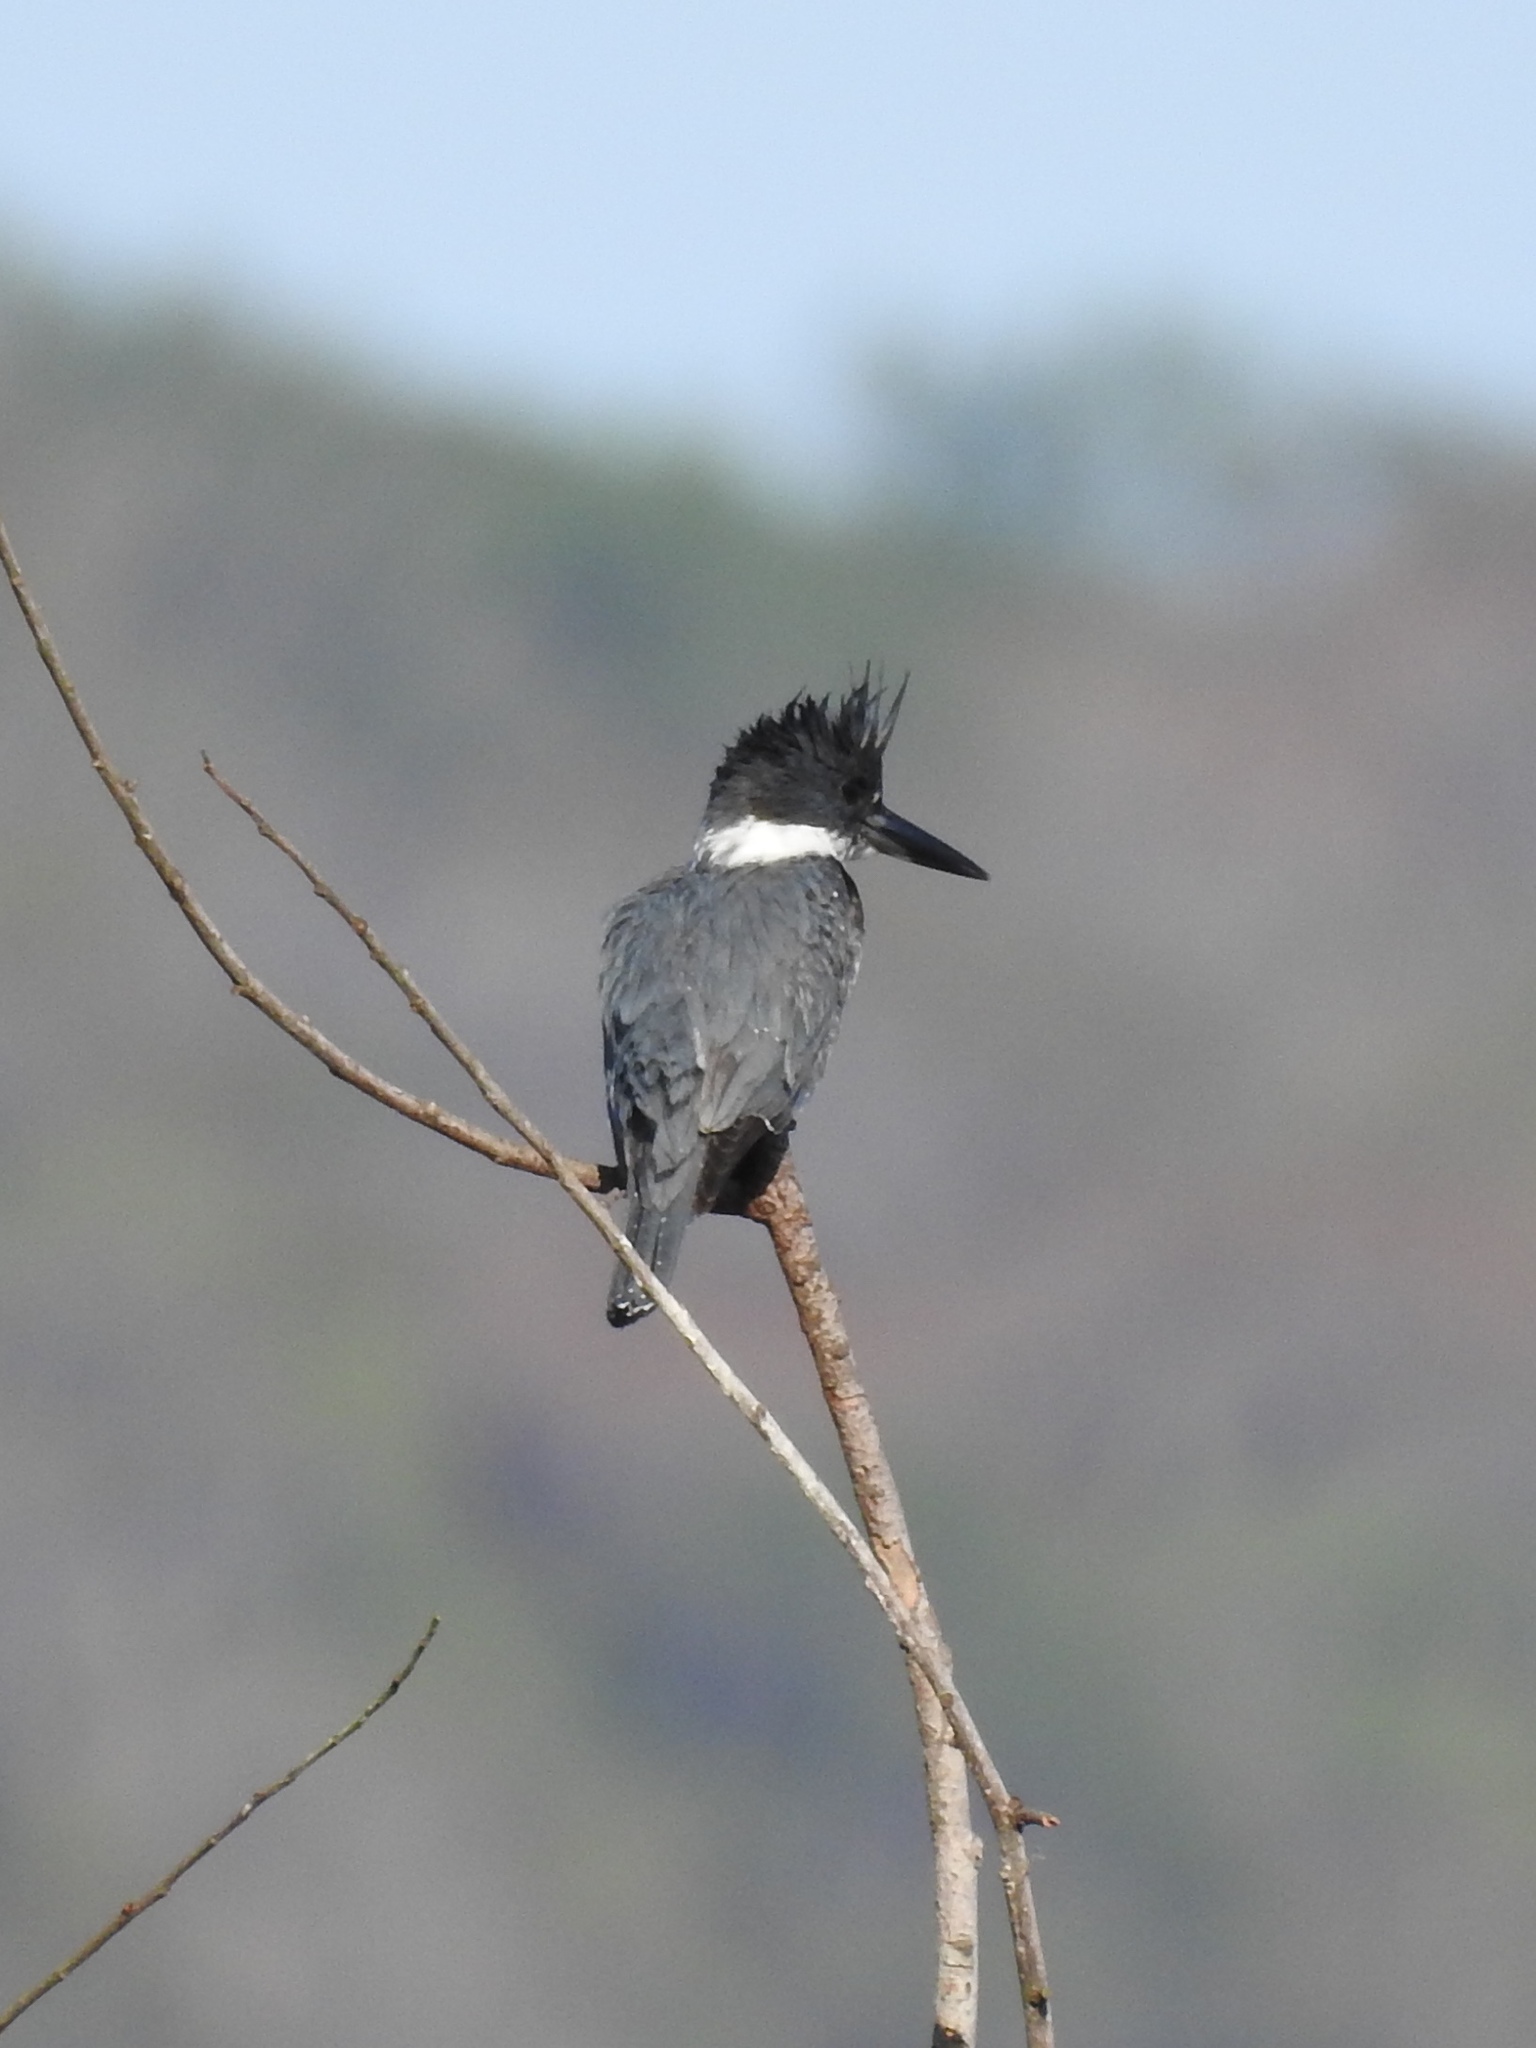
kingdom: Animalia
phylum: Chordata
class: Aves
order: Coraciiformes
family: Alcedinidae
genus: Megaceryle
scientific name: Megaceryle alcyon
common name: Belted kingfisher
